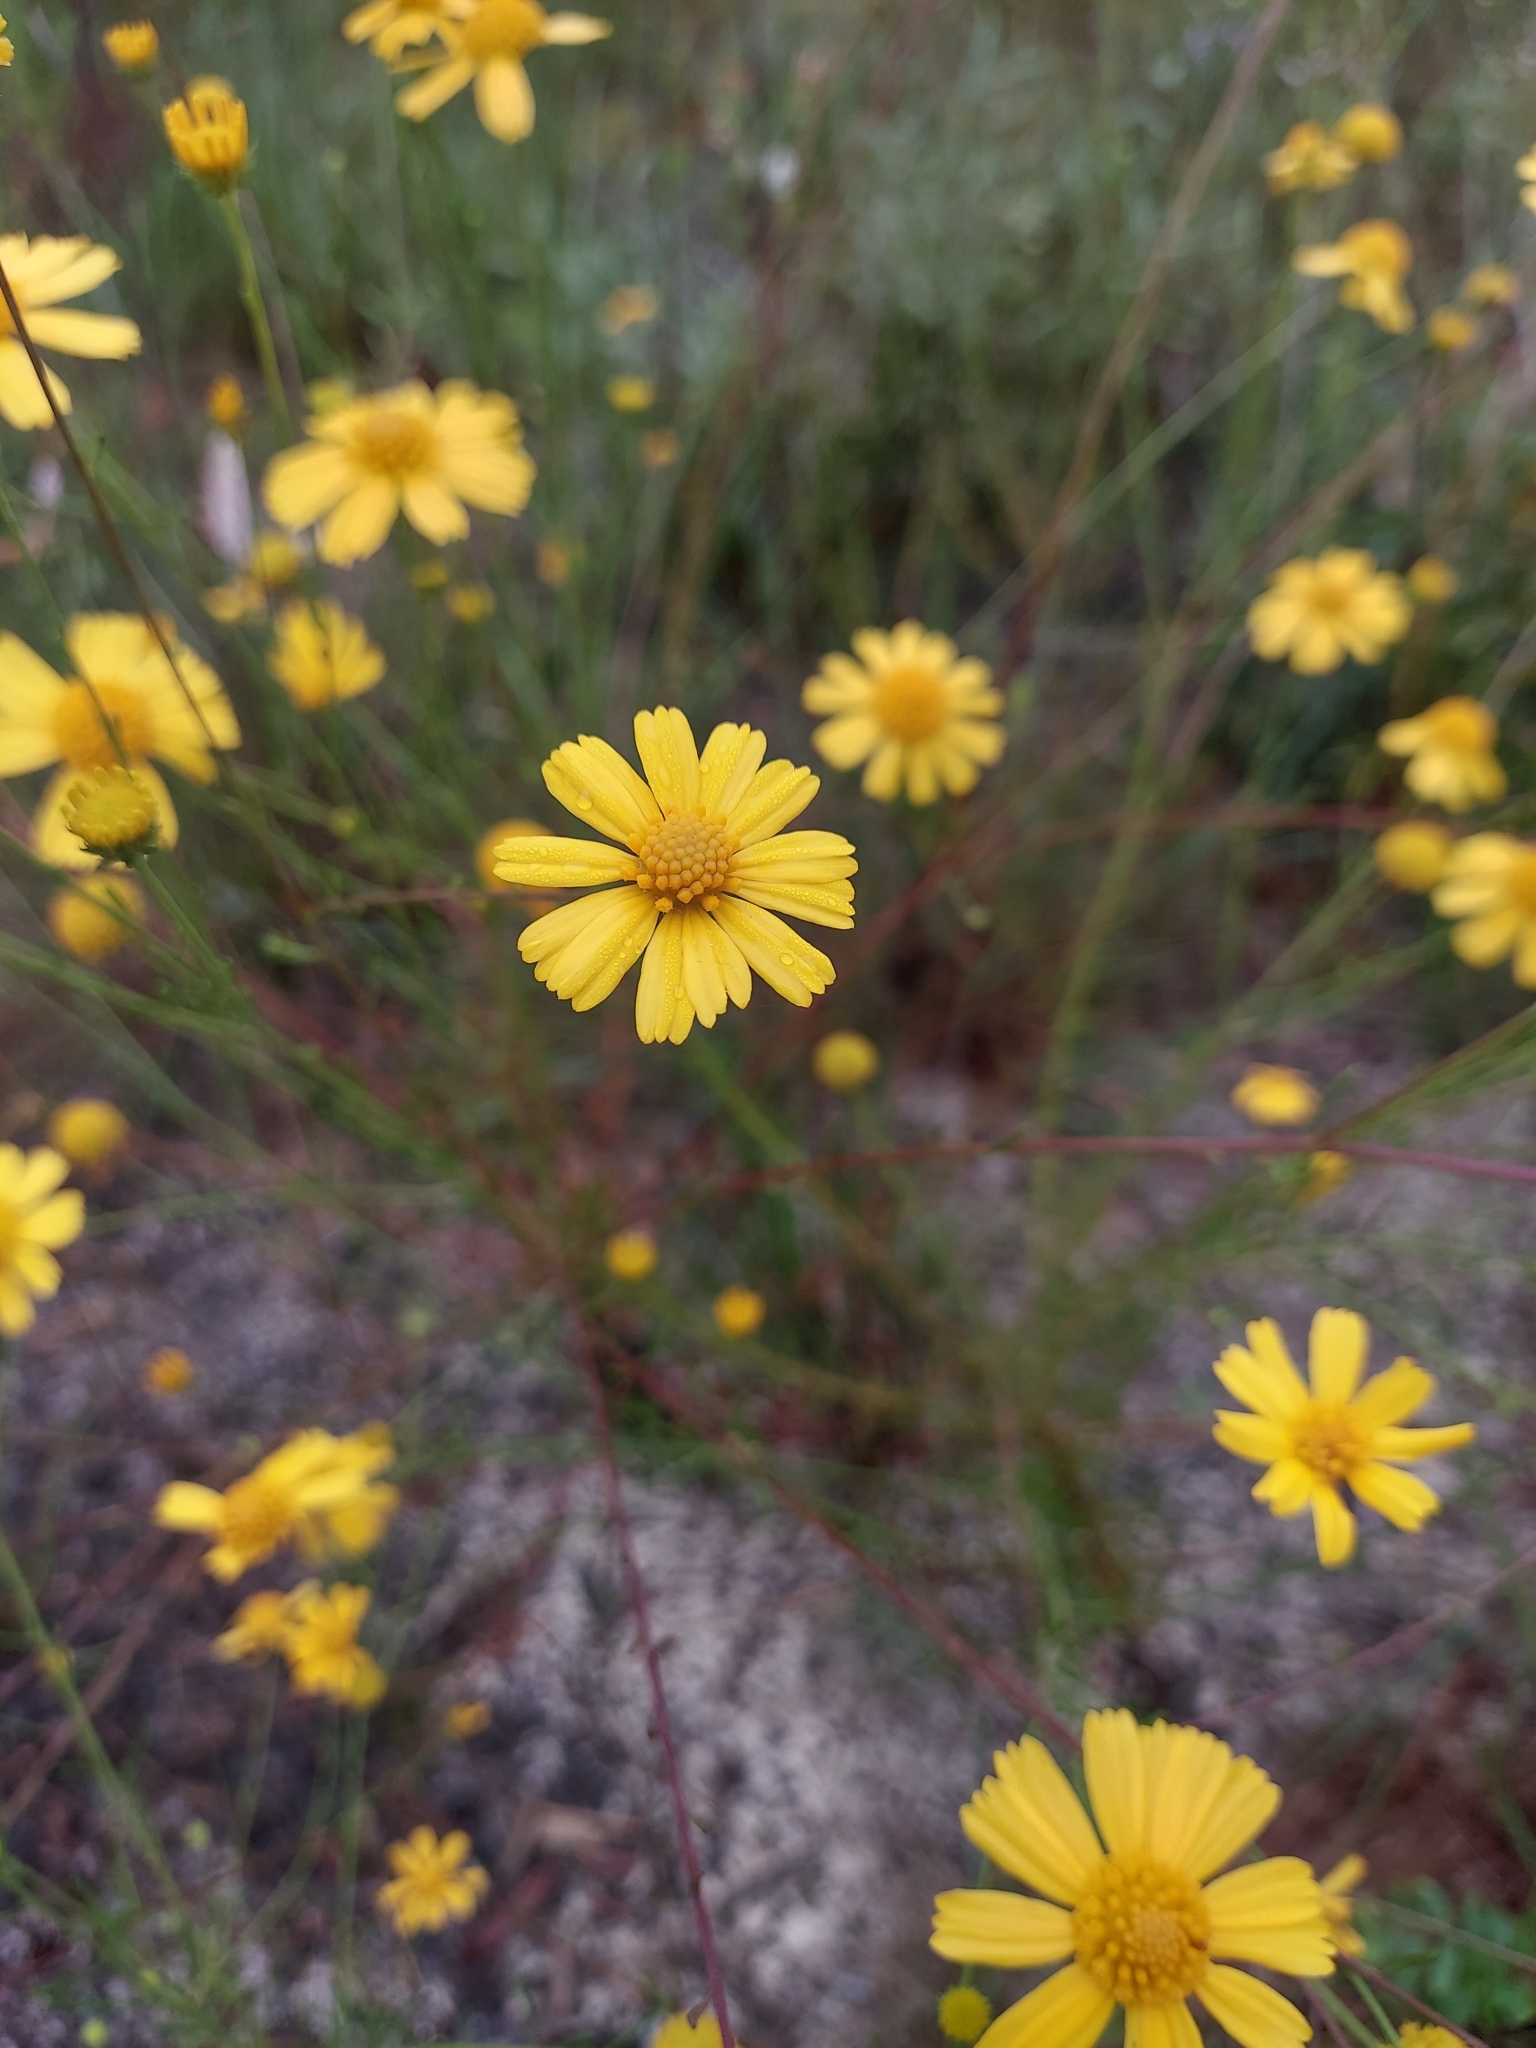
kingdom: Plantae
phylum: Tracheophyta
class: Magnoliopsida
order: Asterales
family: Asteraceae
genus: Balduina
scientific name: Balduina angustifolia
